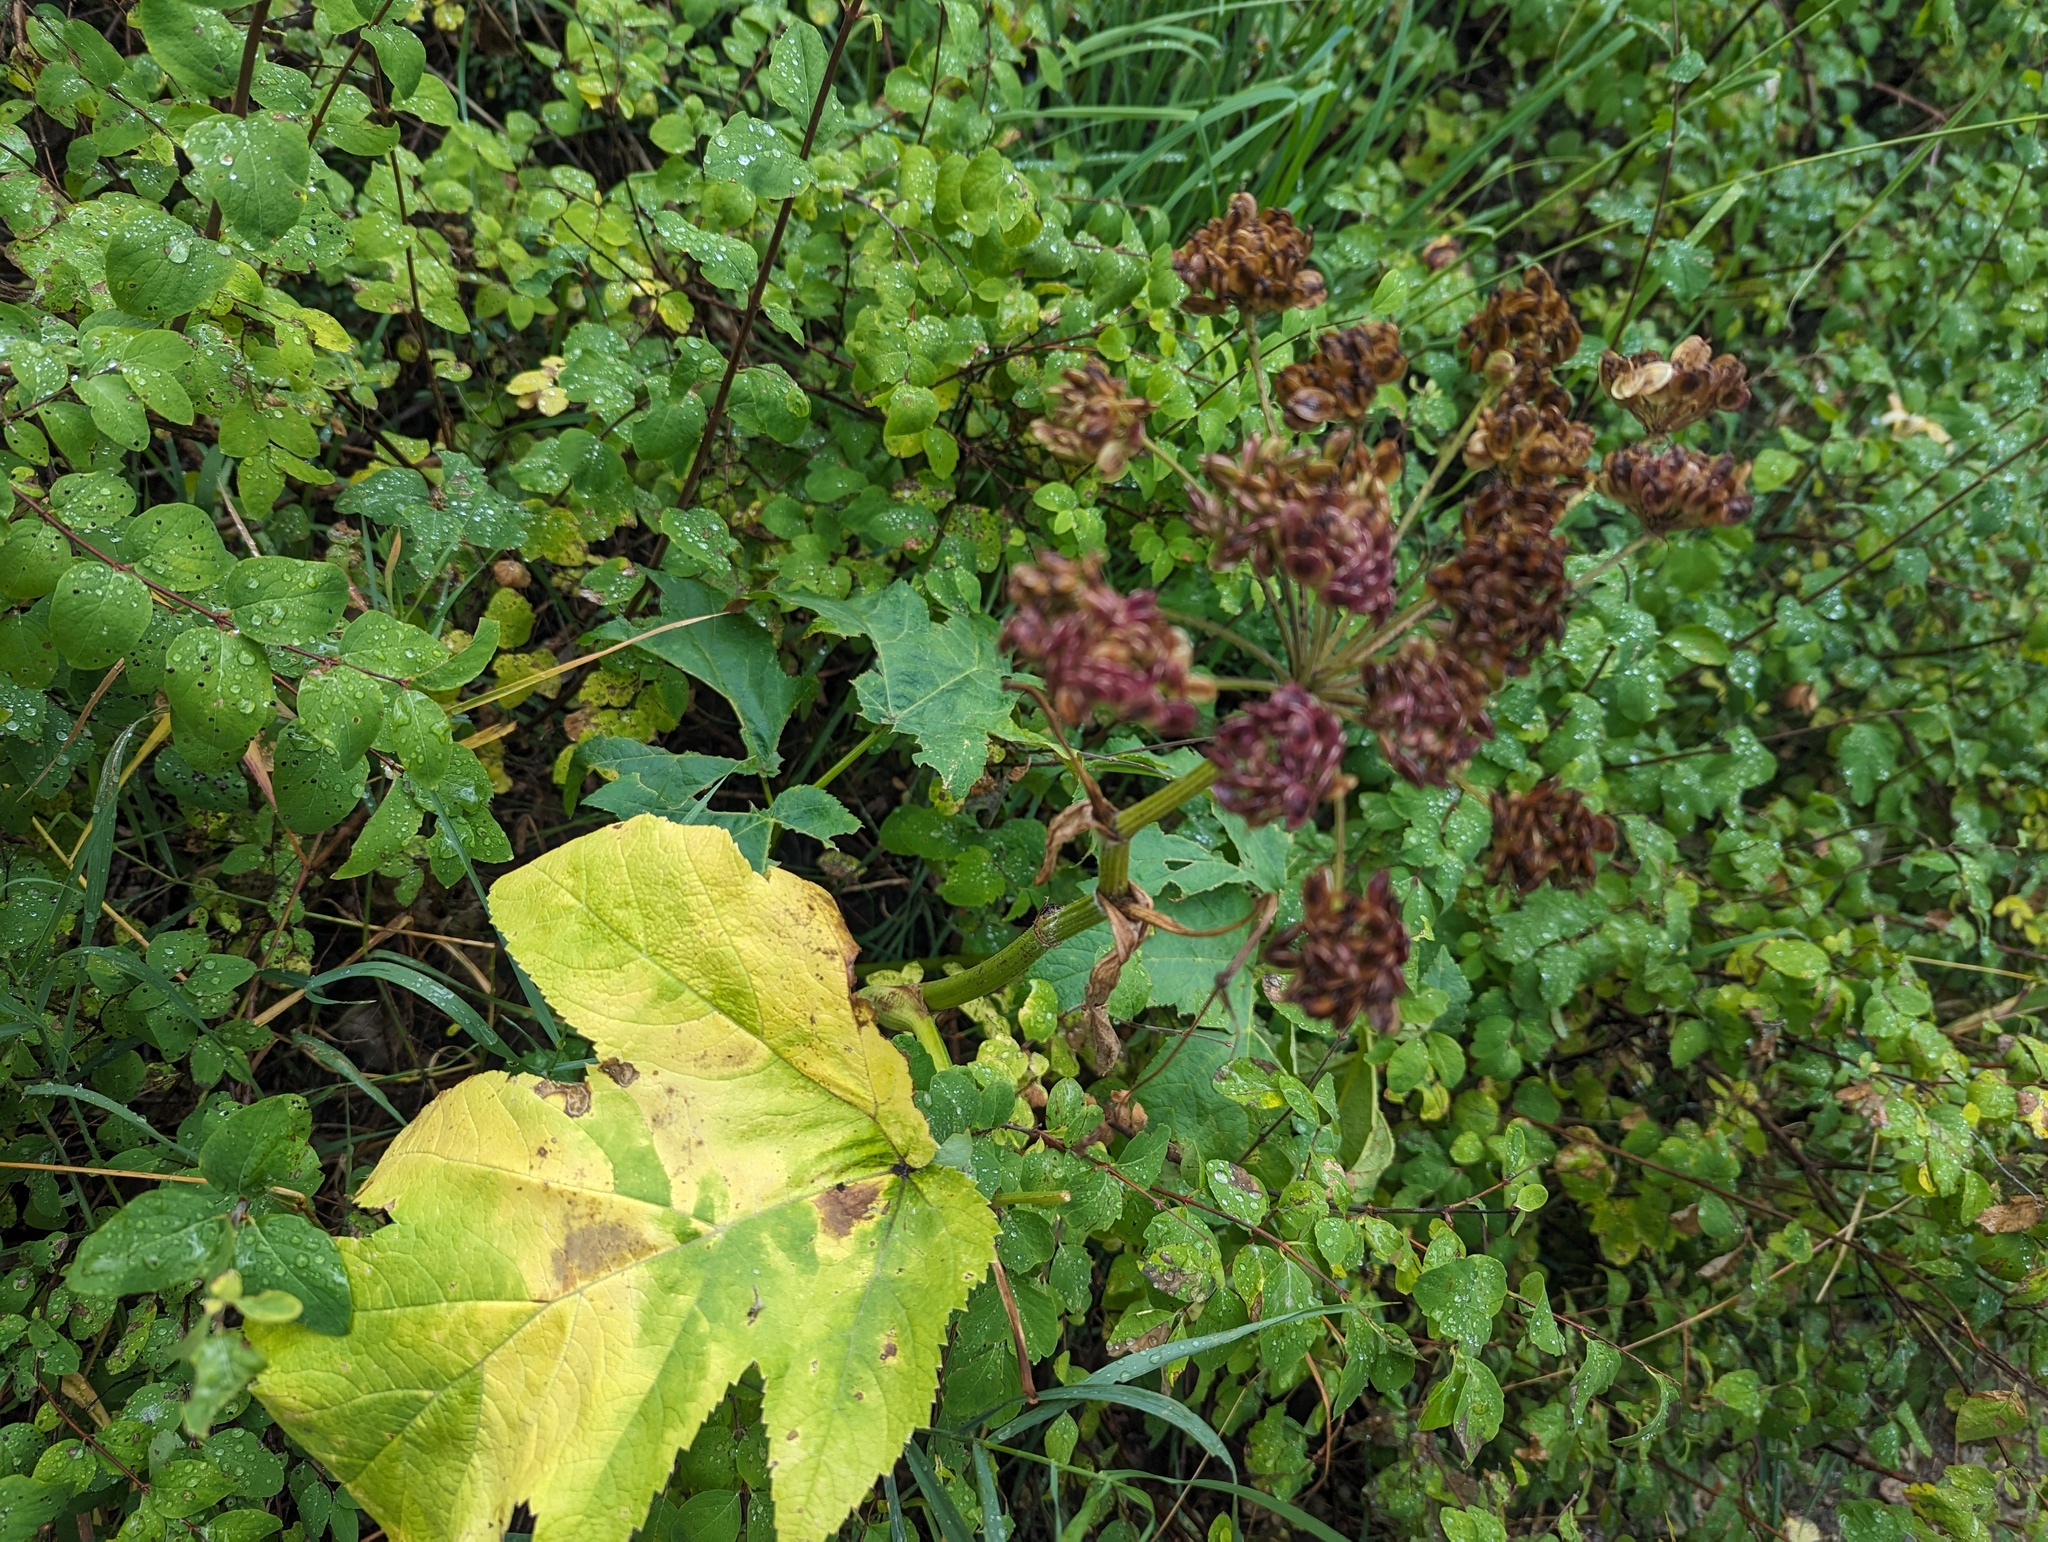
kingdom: Plantae
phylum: Tracheophyta
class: Magnoliopsida
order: Apiales
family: Apiaceae
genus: Heracleum
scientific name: Heracleum maximum
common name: American cow parsnip
